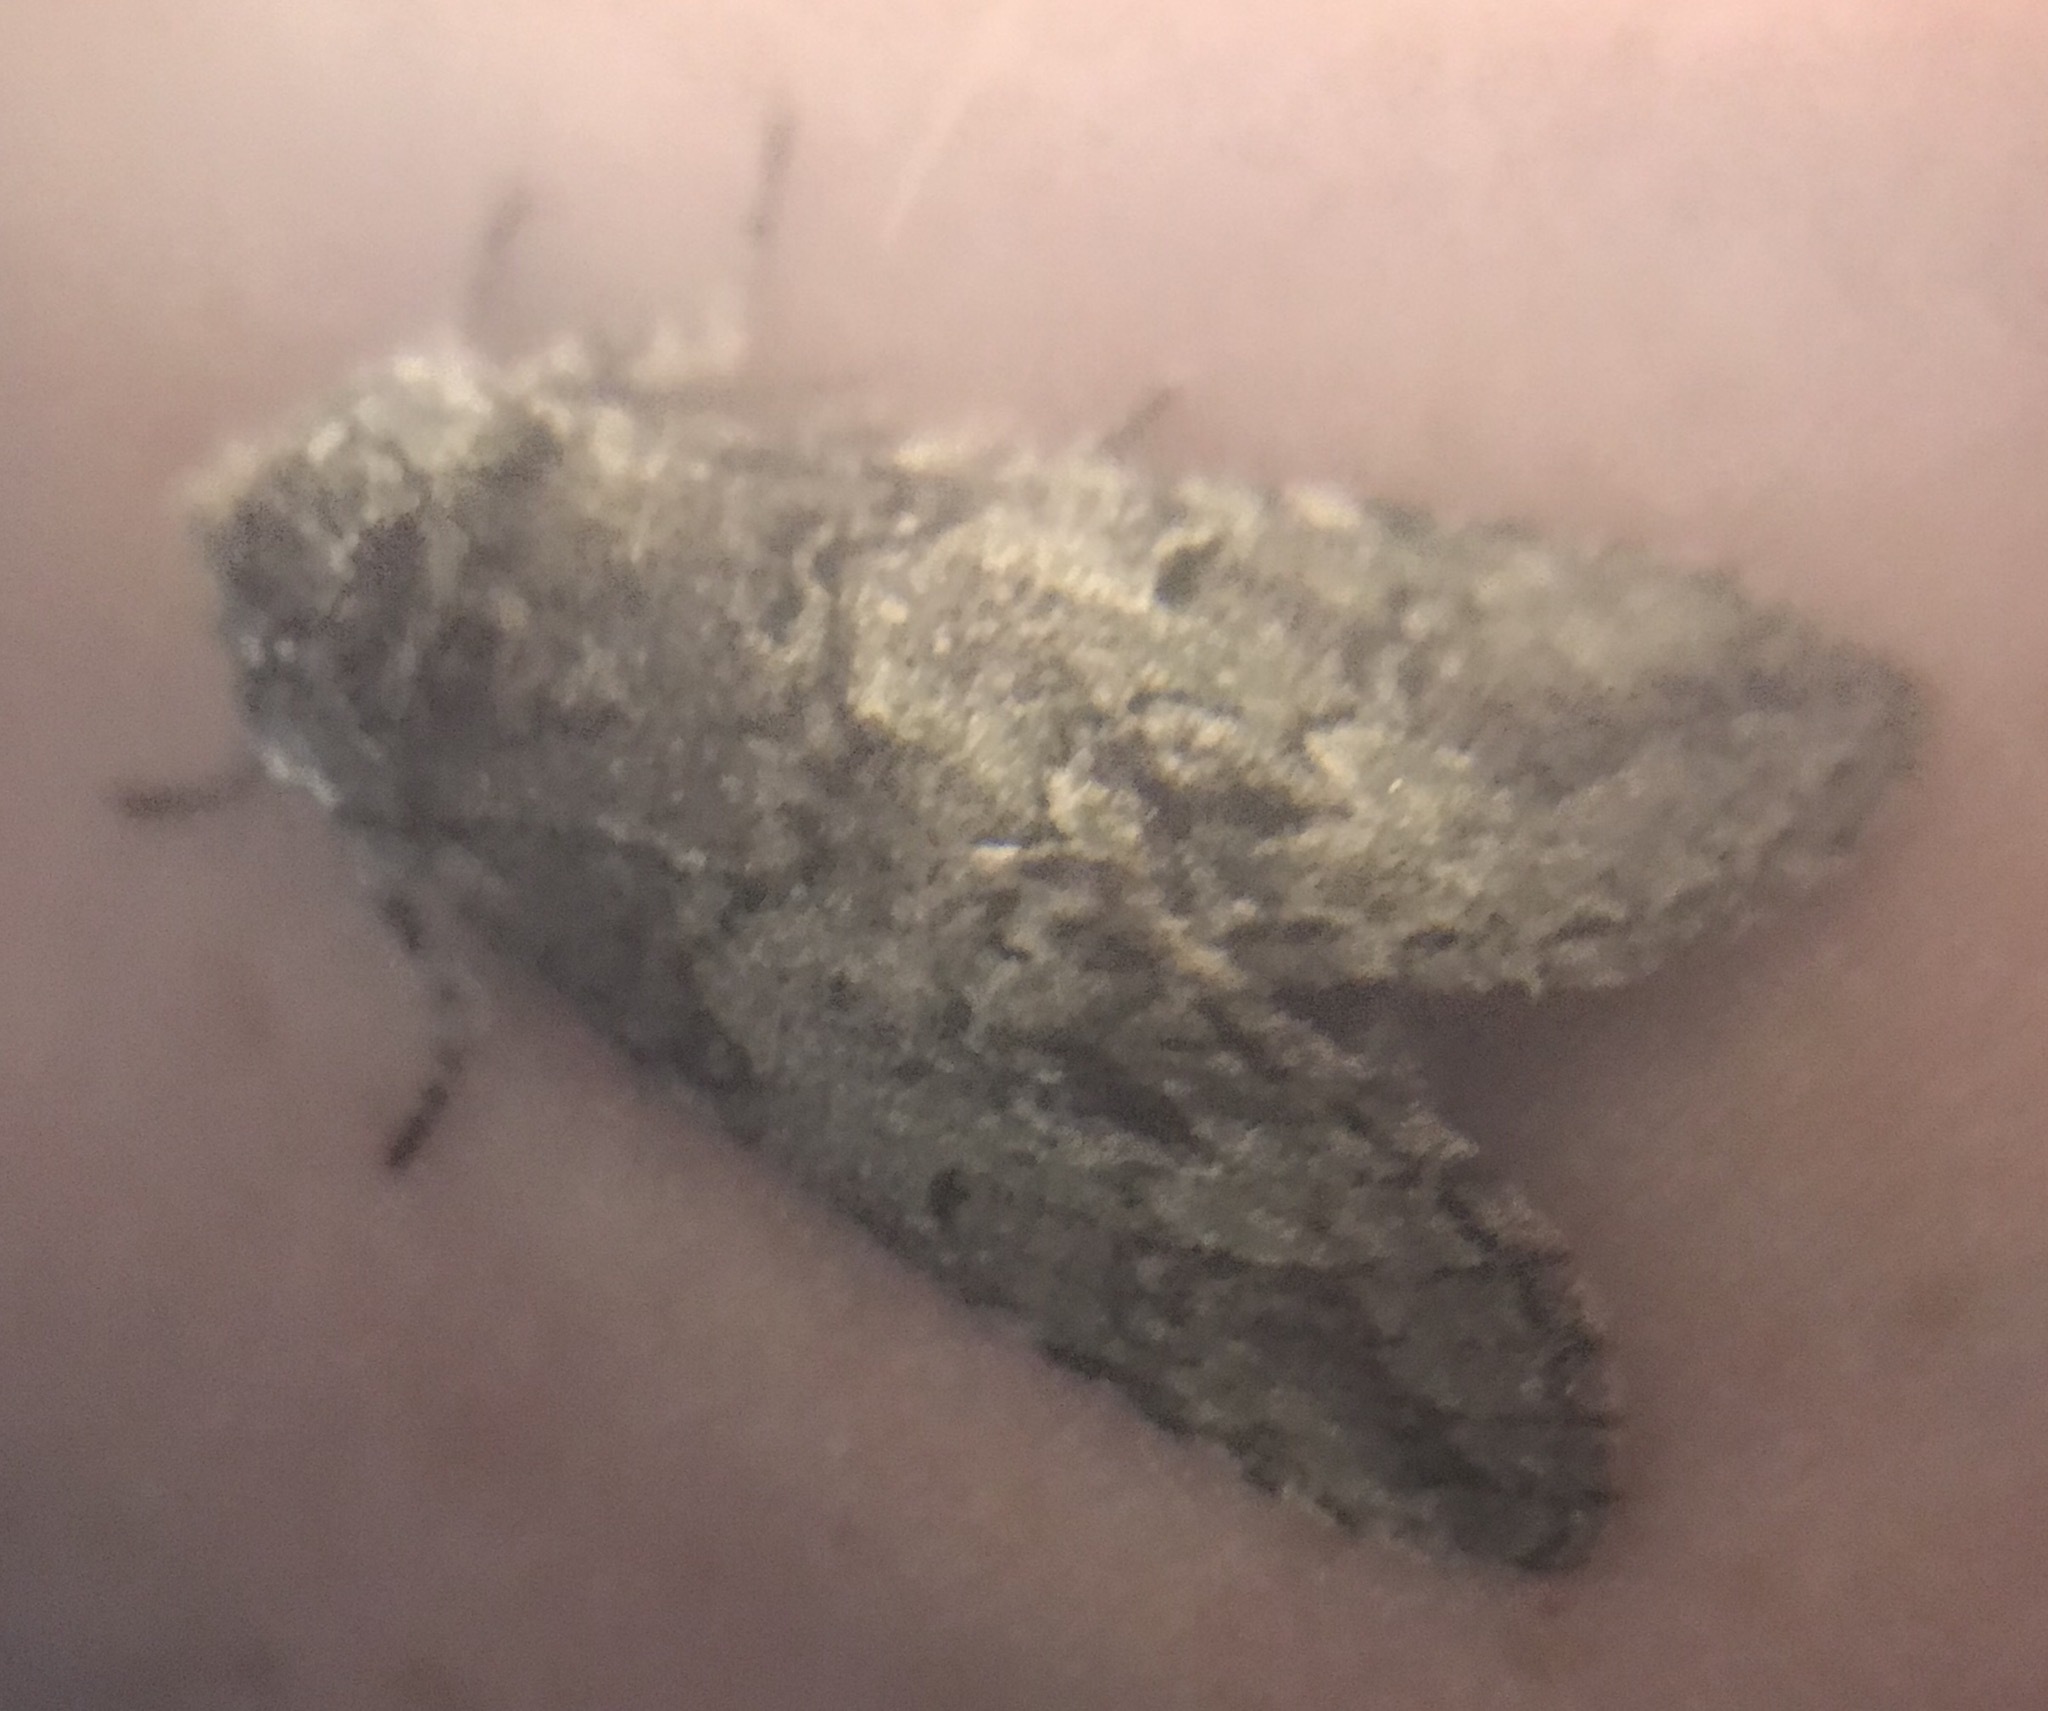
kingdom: Animalia
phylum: Arthropoda
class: Insecta
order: Lepidoptera
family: Notodontidae
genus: Macrurocampa
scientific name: Macrurocampa marthesia
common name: Mottled prominent
